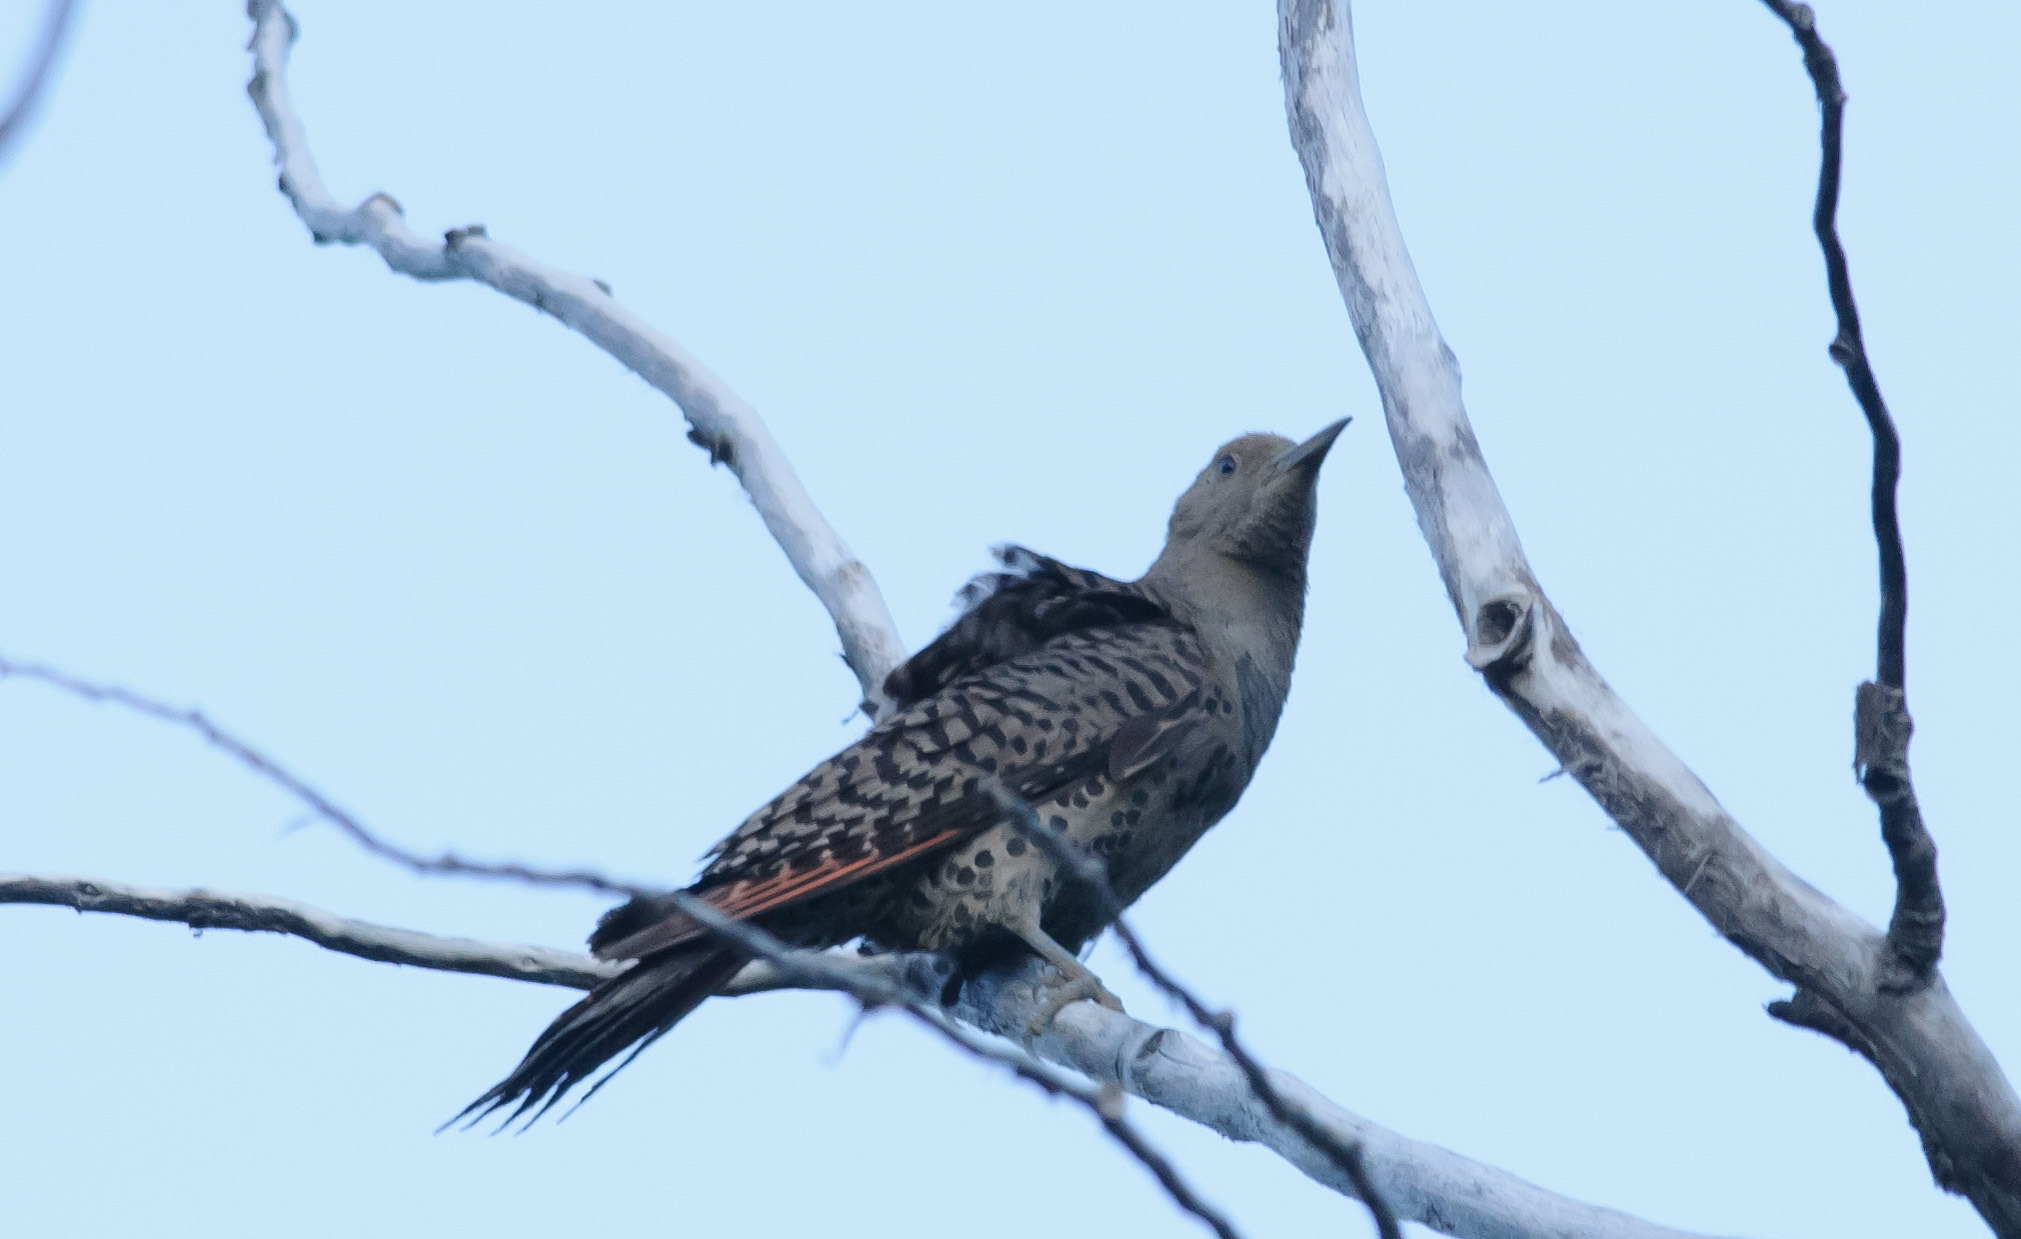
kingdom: Animalia
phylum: Chordata
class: Aves
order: Piciformes
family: Picidae
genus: Colaptes
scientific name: Colaptes auratus
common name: Northern flicker
